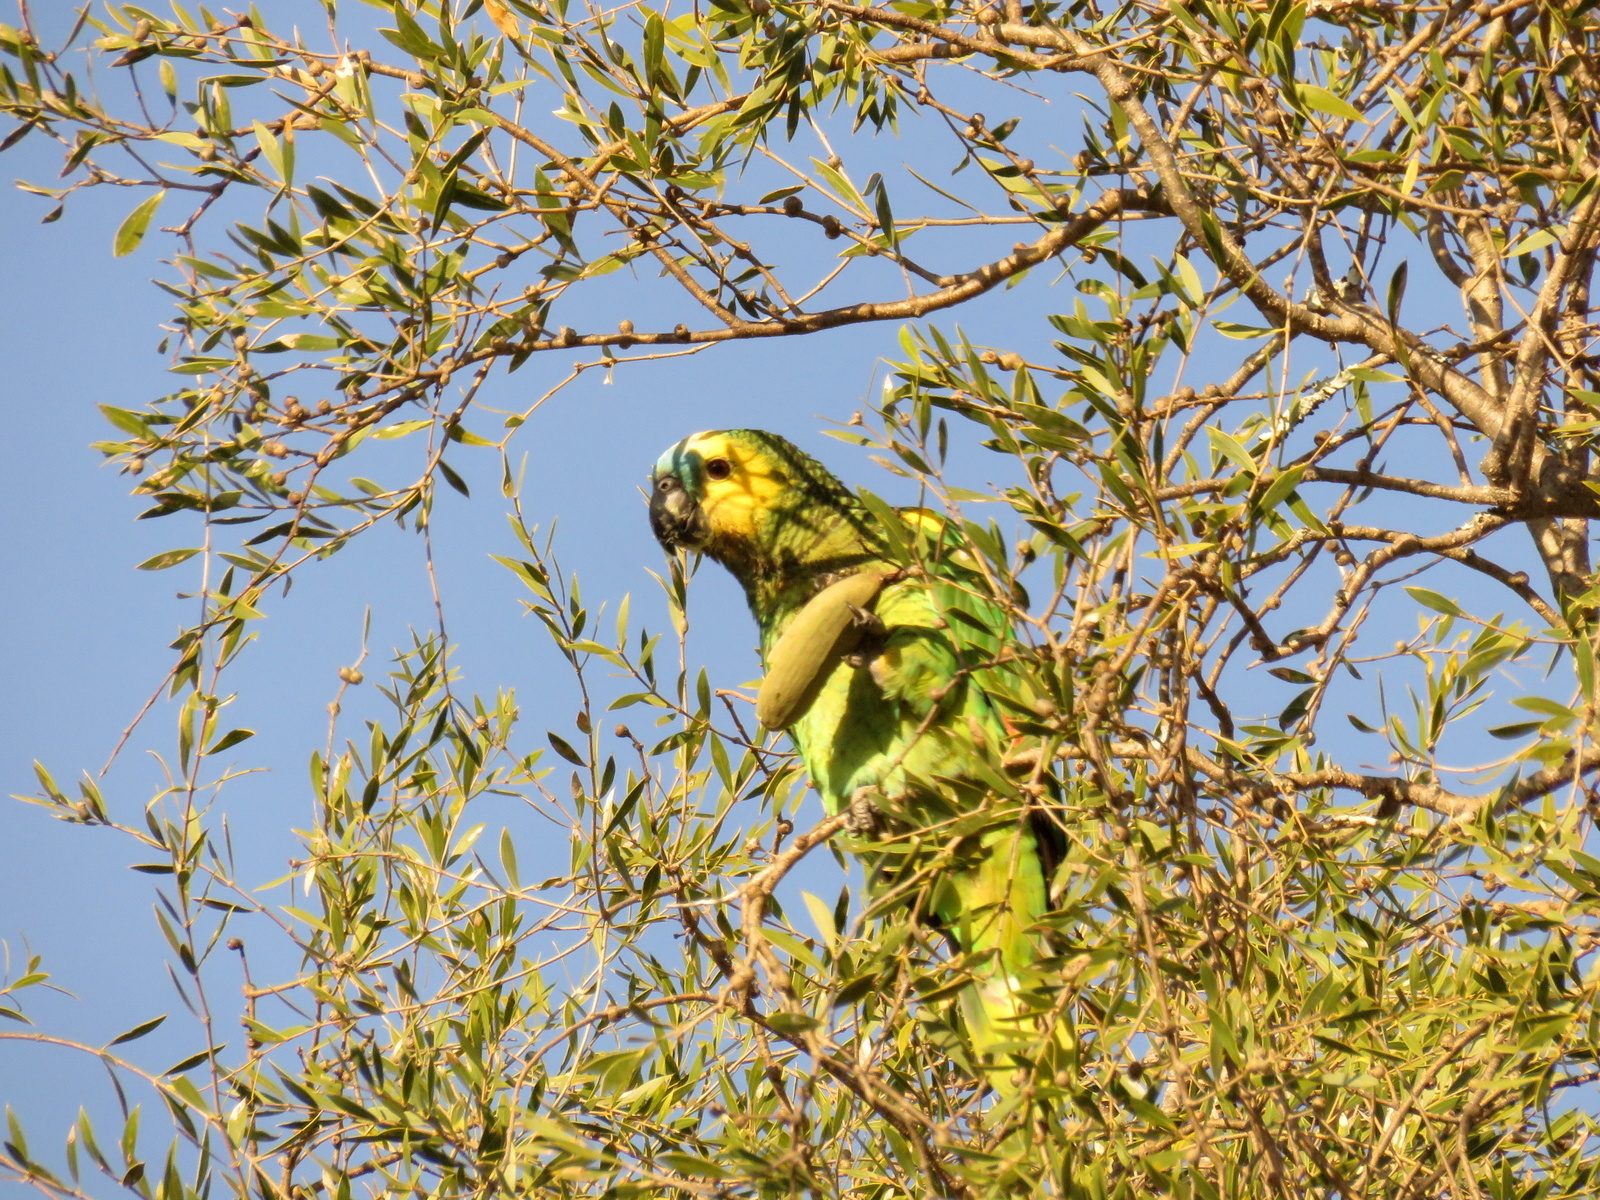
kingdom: Animalia
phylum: Chordata
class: Aves
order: Psittaciformes
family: Psittacidae
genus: Amazona
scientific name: Amazona aestiva
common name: Turquoise-fronted amazon
